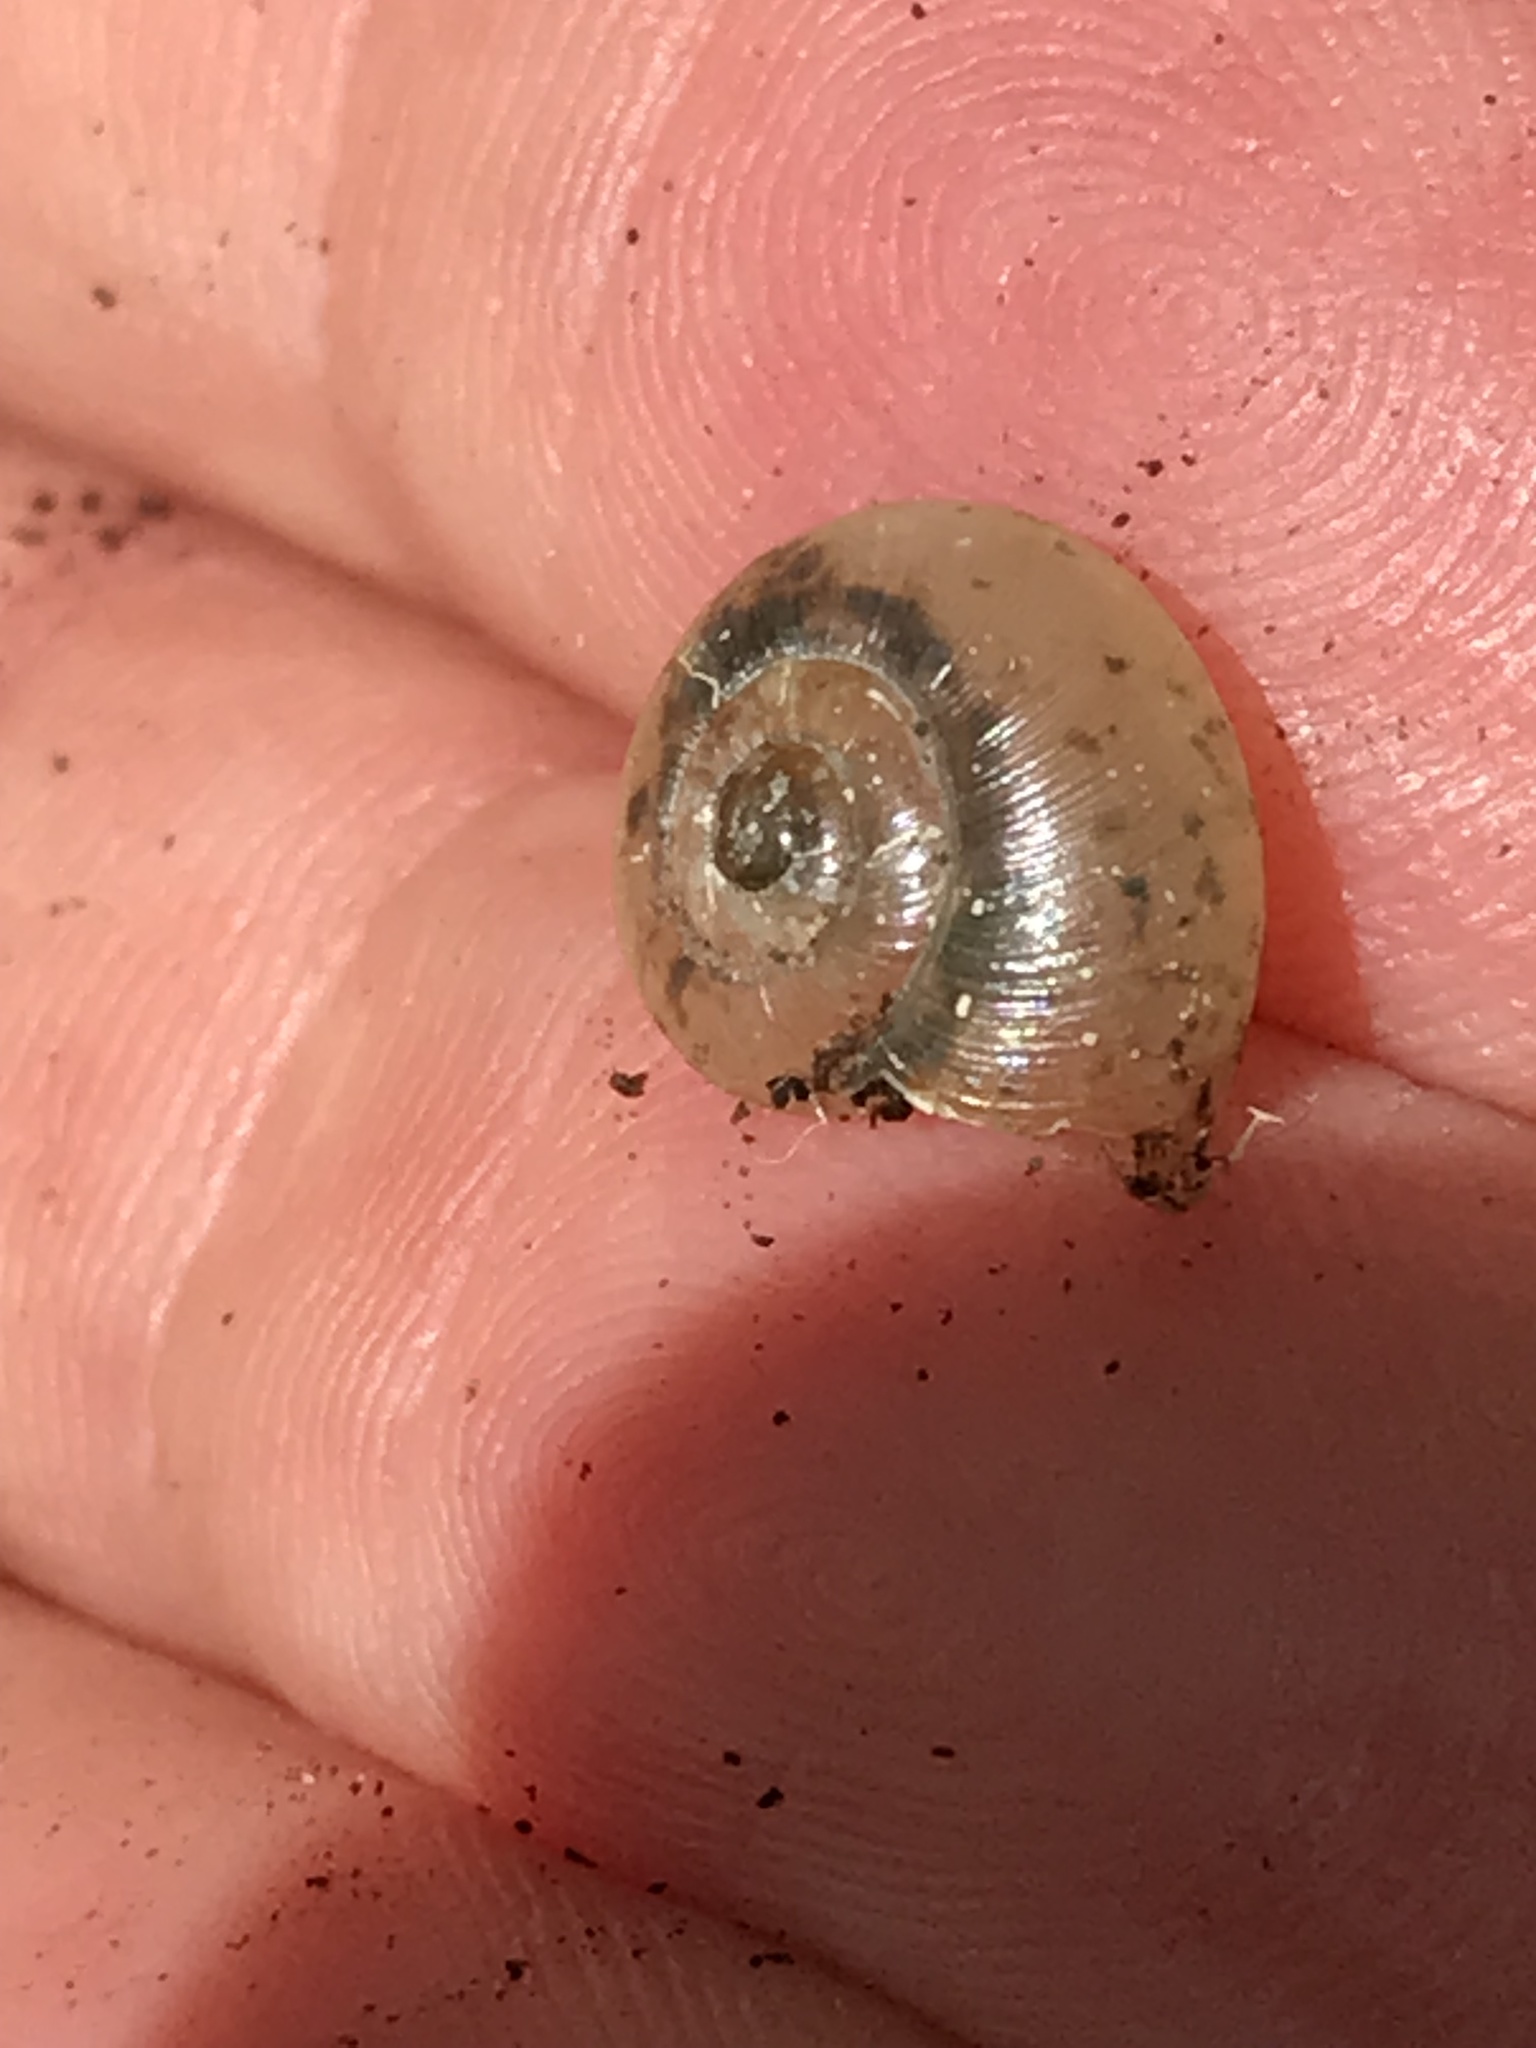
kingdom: Animalia
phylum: Mollusca
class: Gastropoda
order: Stylommatophora
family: Haplotrematidae
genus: Haplotrema
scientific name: Haplotrema minimum
